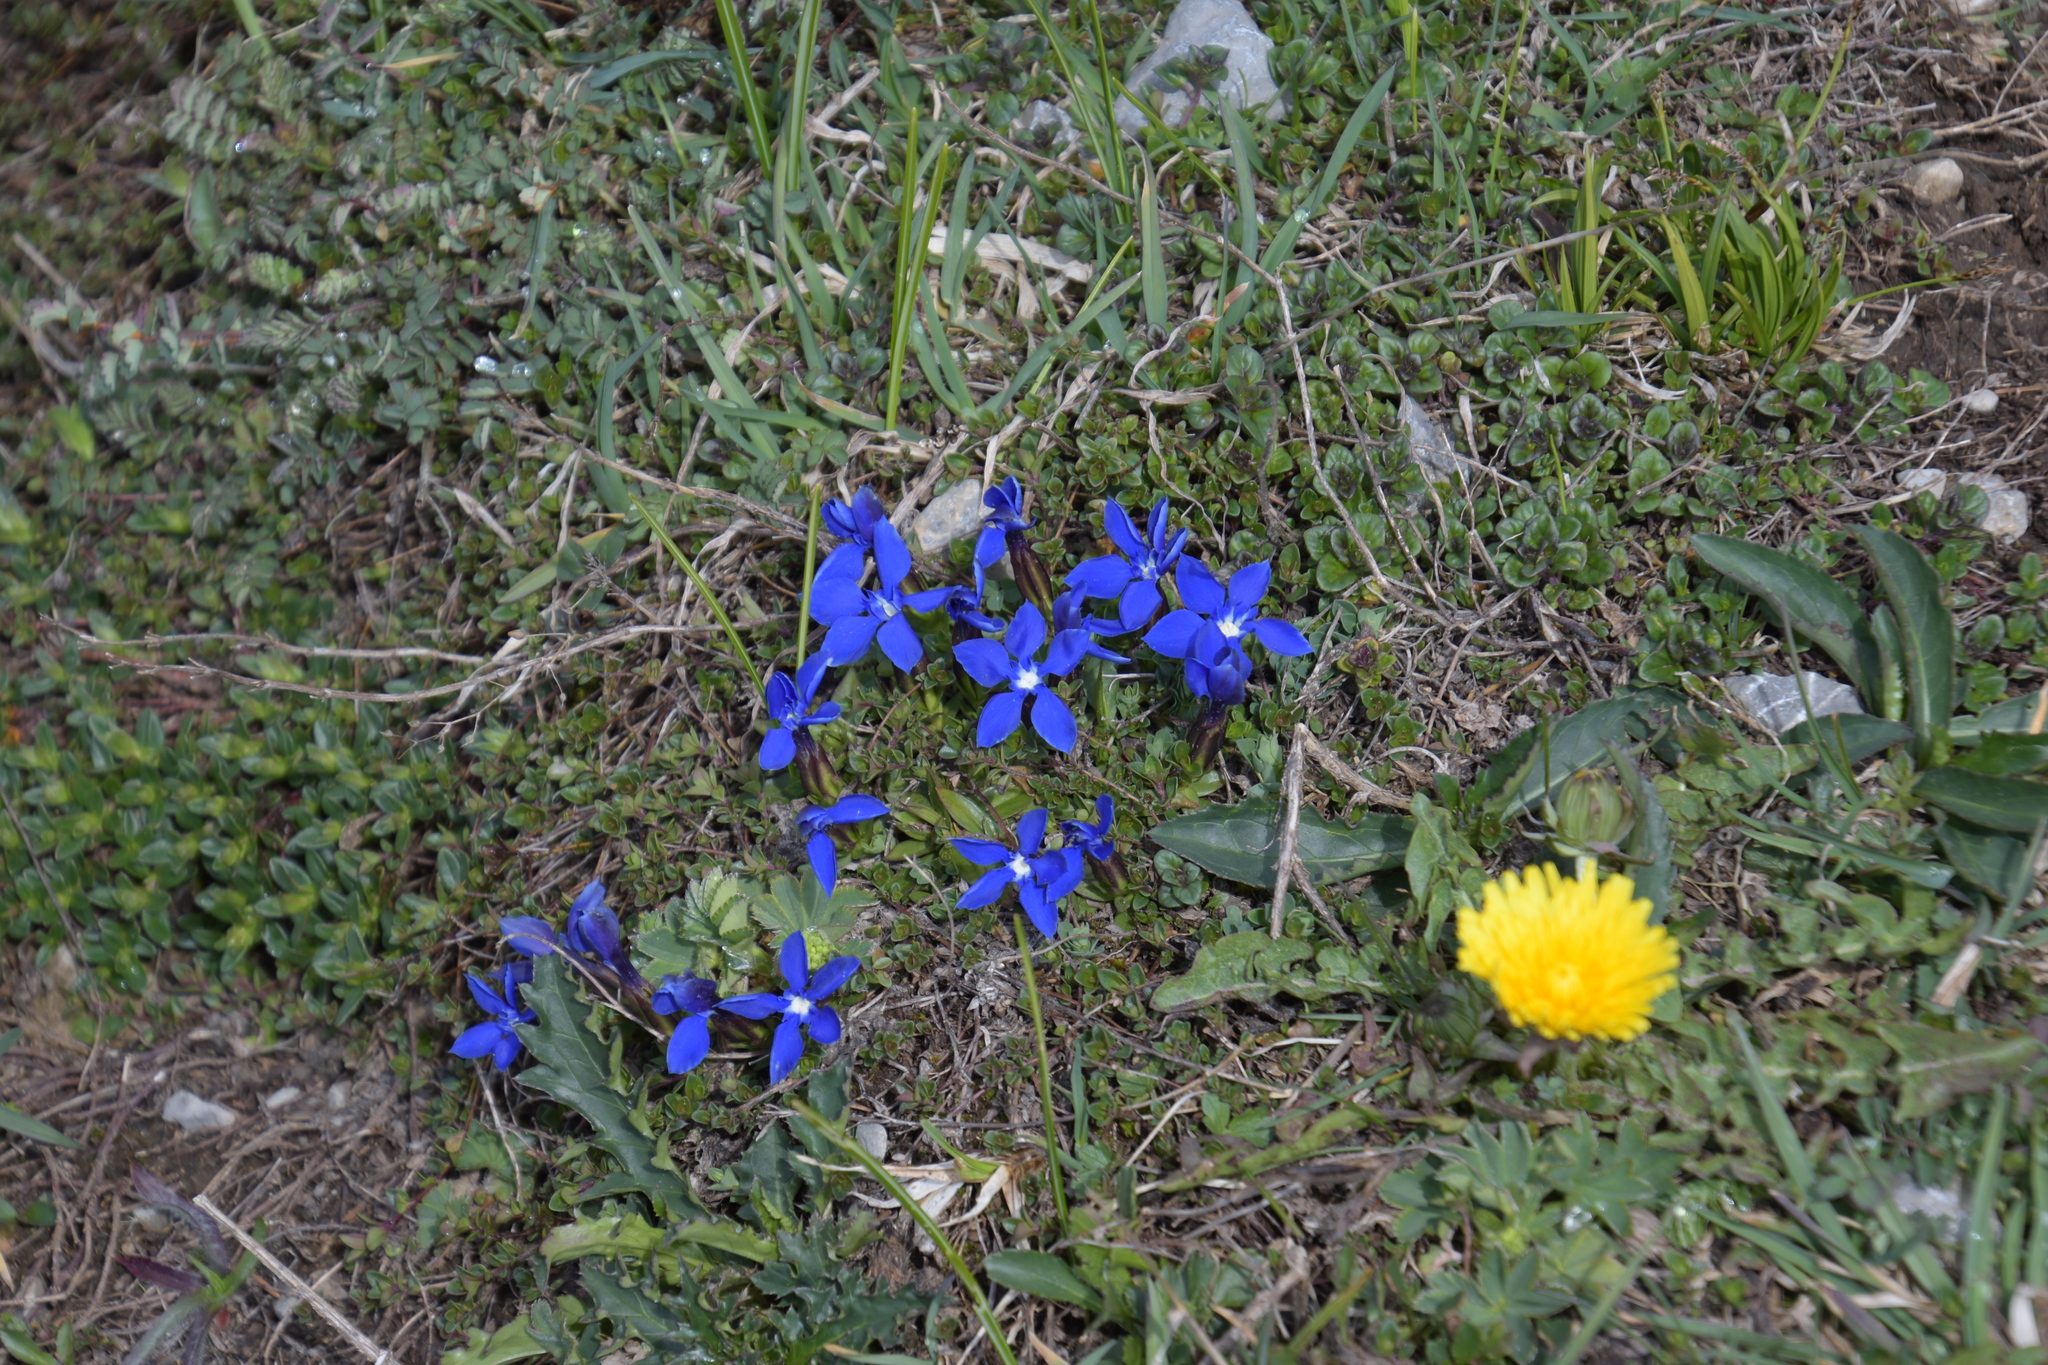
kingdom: Plantae
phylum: Tracheophyta
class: Magnoliopsida
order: Gentianales
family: Gentianaceae
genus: Gentiana
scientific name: Gentiana verna
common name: Spring gentian
